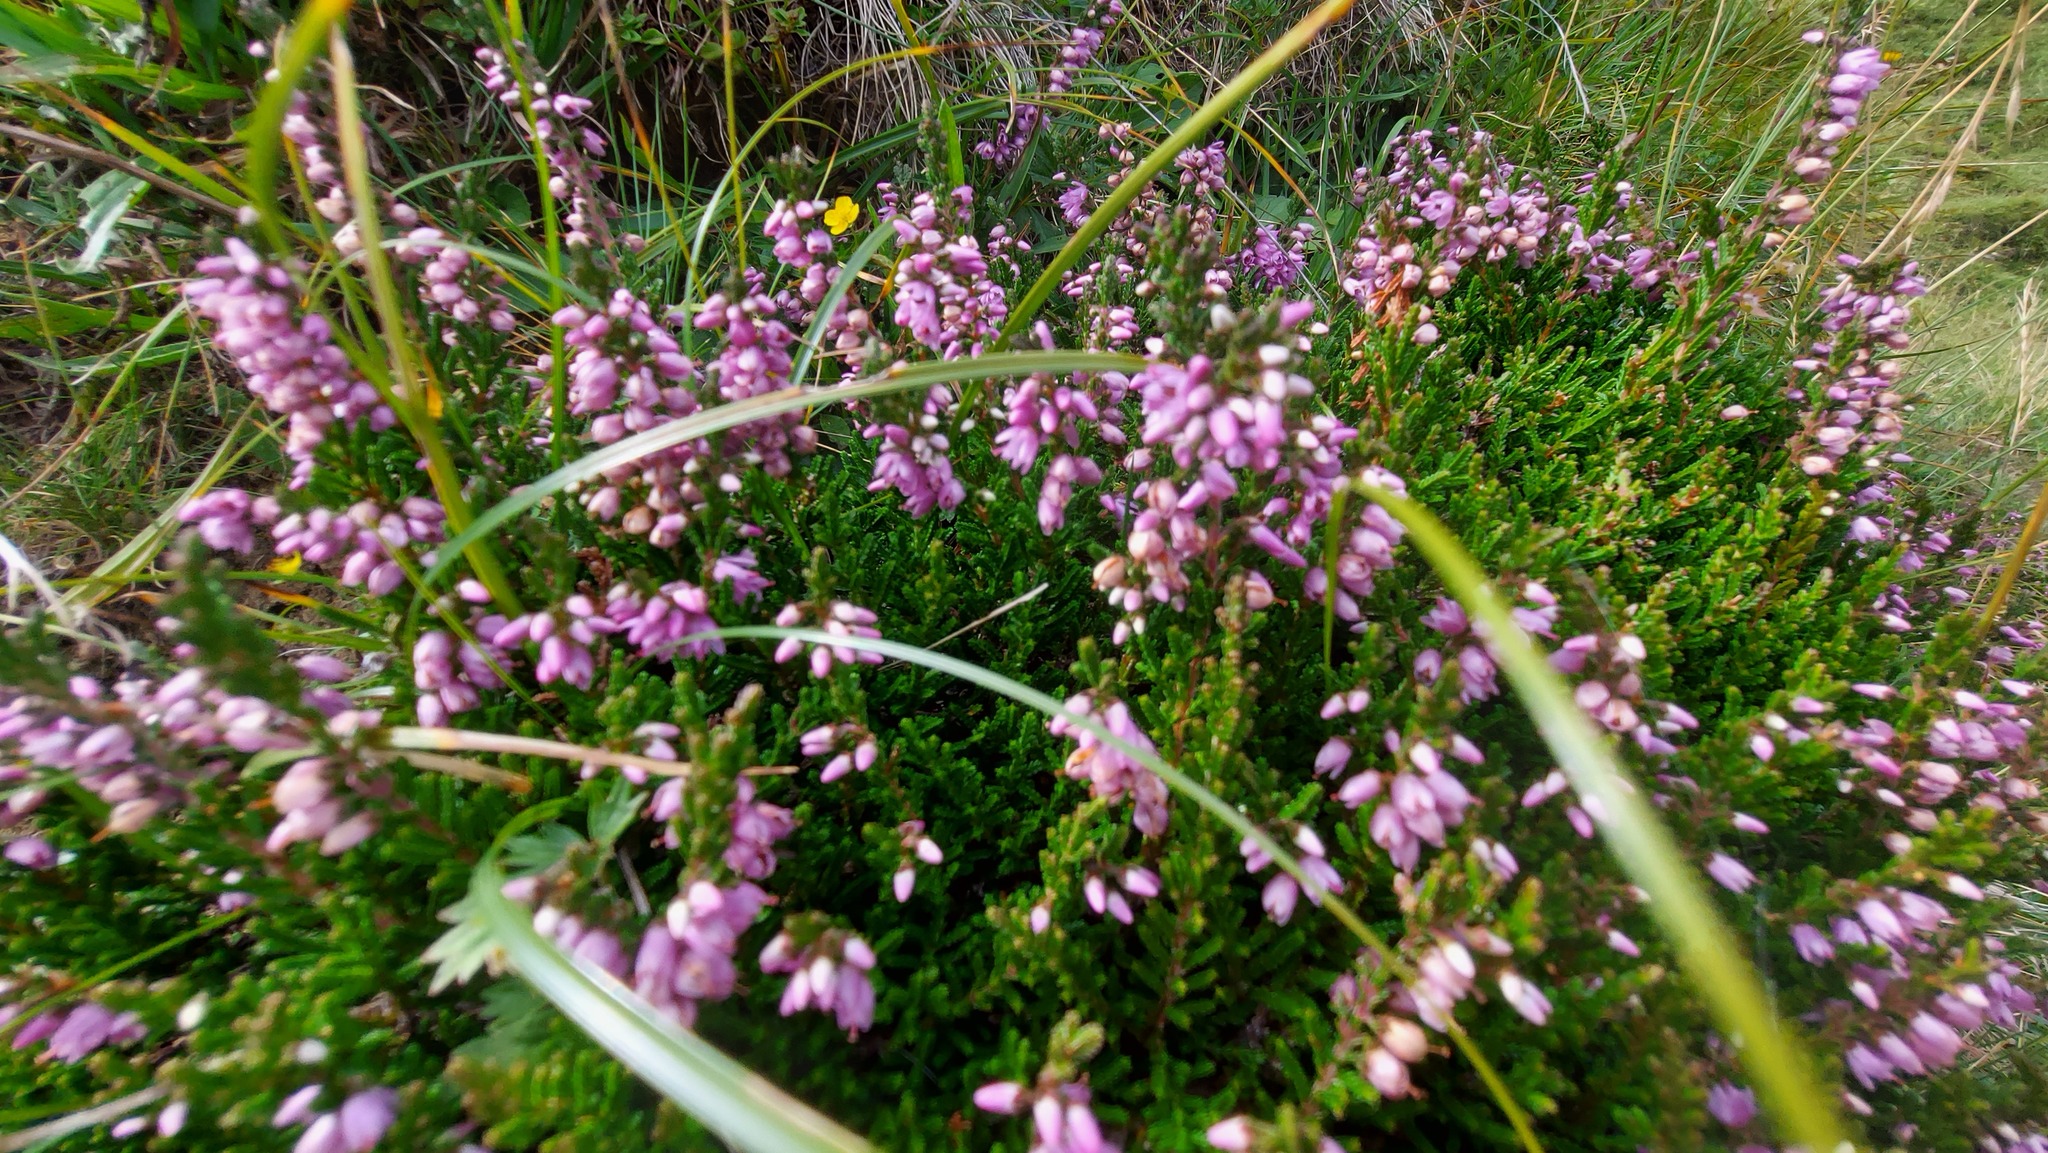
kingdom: Plantae
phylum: Tracheophyta
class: Magnoliopsida
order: Ericales
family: Ericaceae
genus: Calluna
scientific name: Calluna vulgaris
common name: Heather
